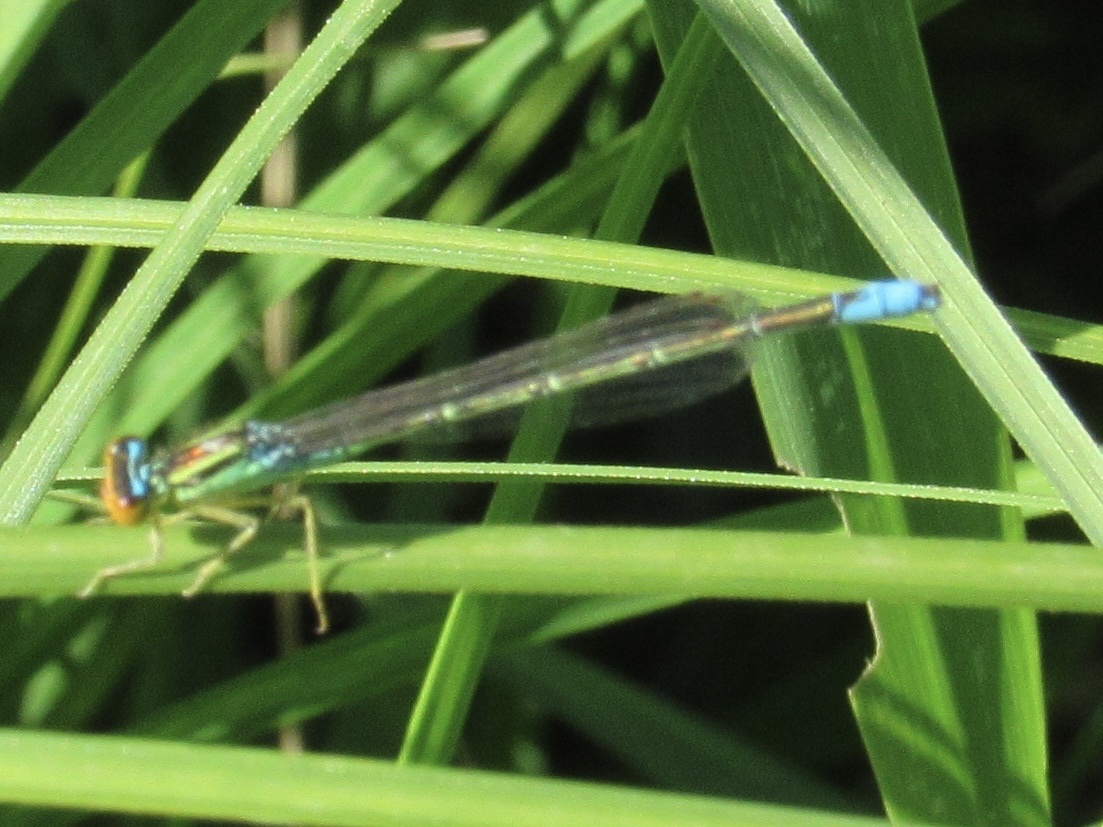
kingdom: Animalia
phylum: Arthropoda
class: Insecta
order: Odonata
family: Coenagrionidae
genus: Enallagma
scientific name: Enallagma antennatum
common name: Rainbow bluet
